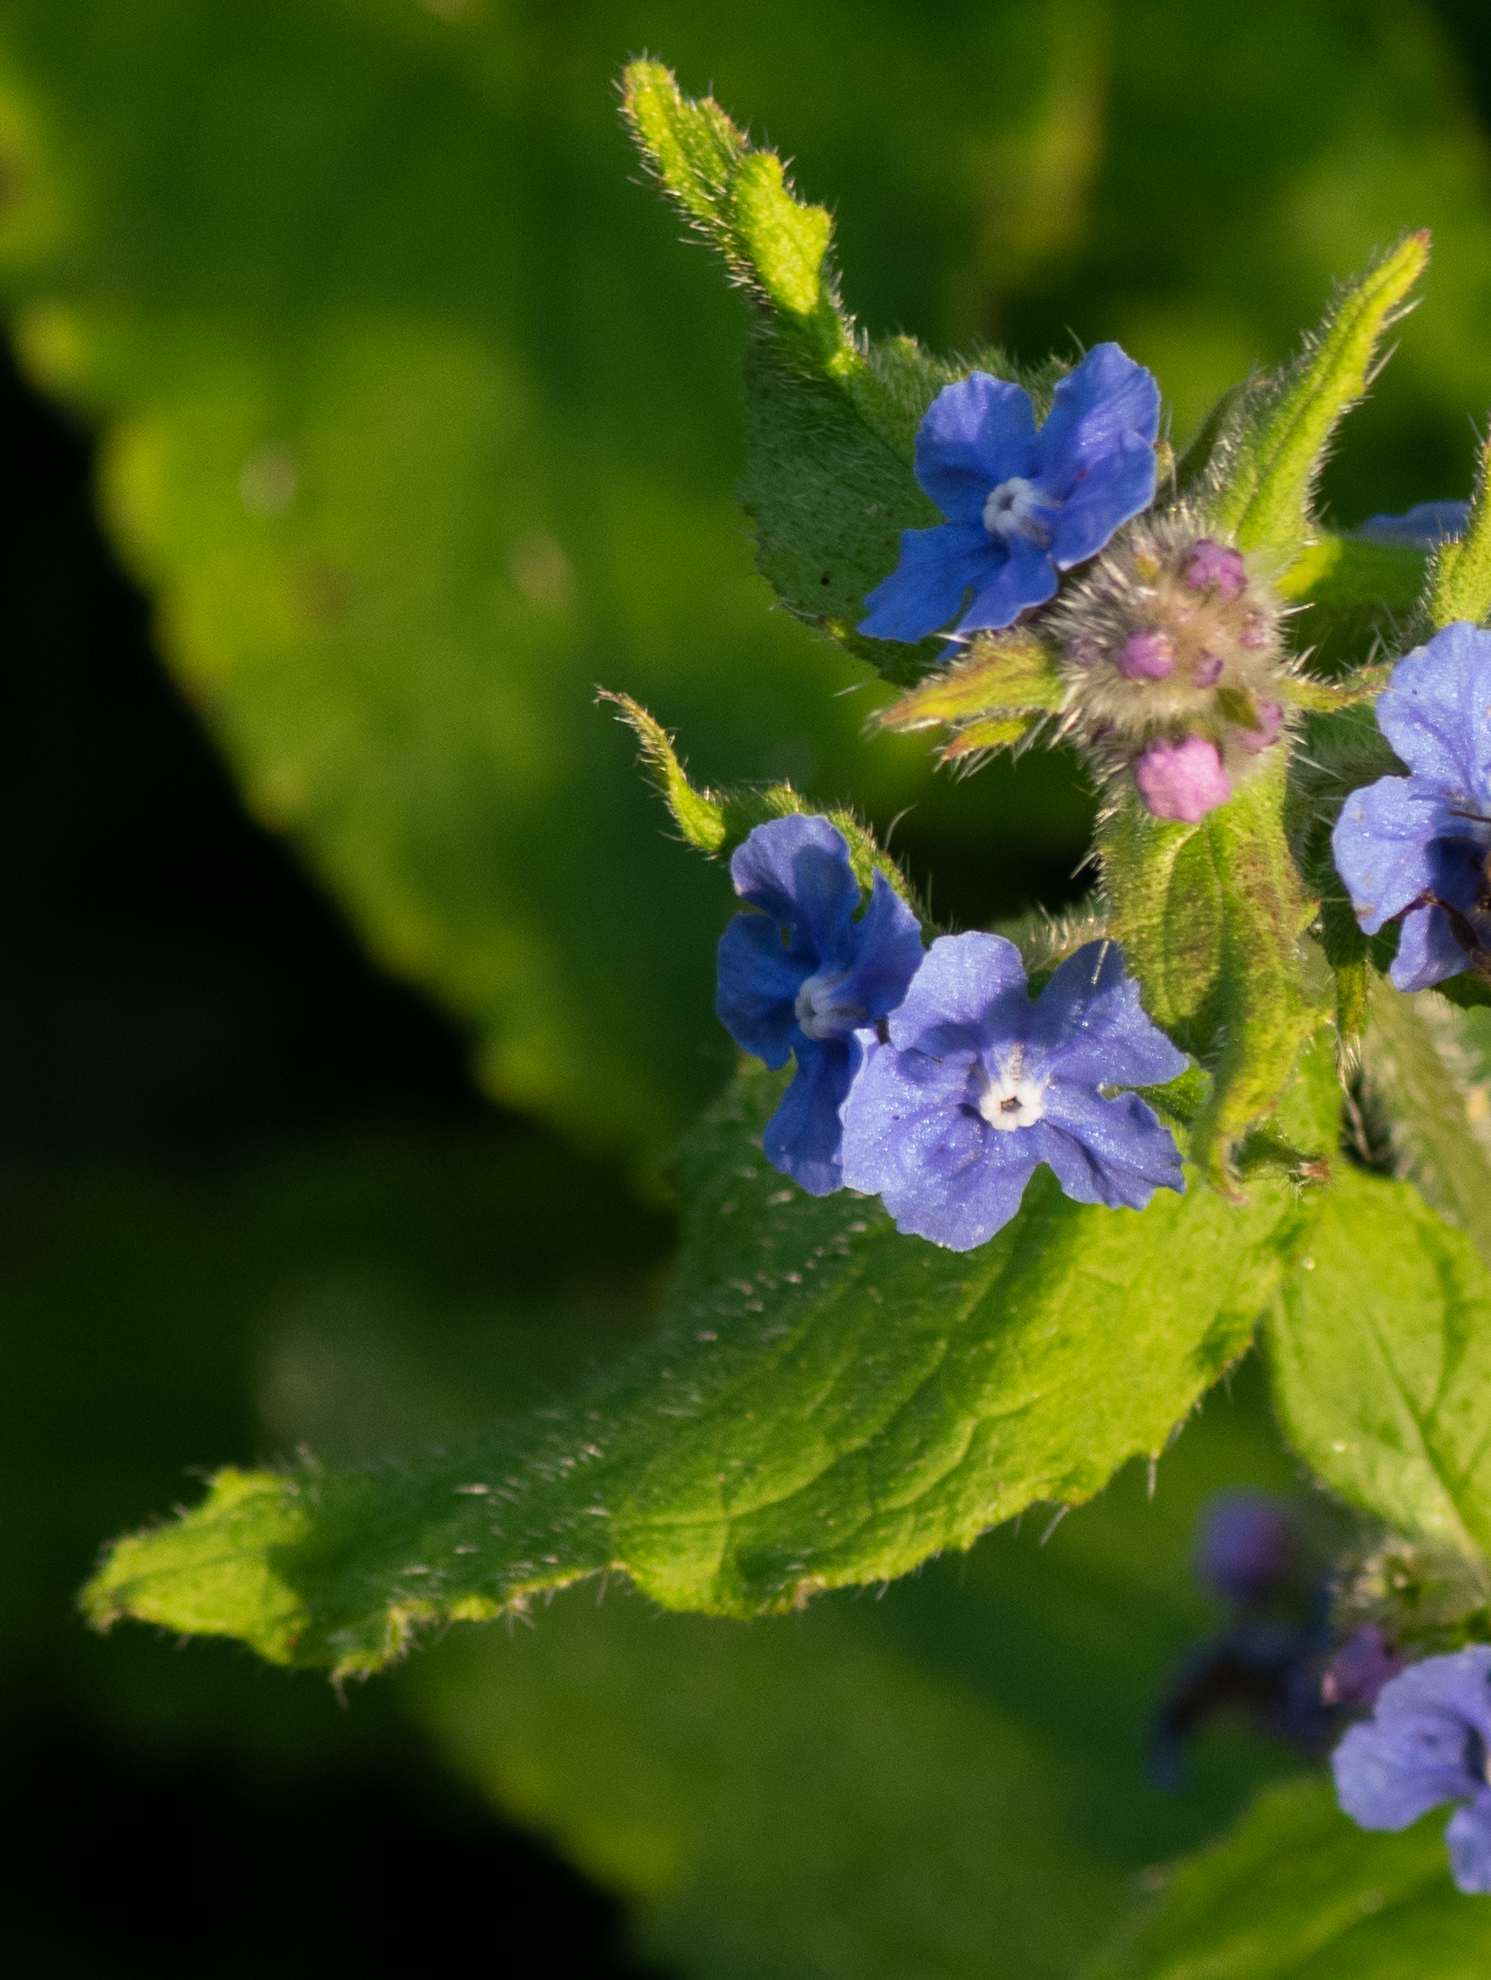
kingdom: Plantae
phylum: Tracheophyta
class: Magnoliopsida
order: Boraginales
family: Boraginaceae
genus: Pentaglottis
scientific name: Pentaglottis sempervirens
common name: Green alkanet
